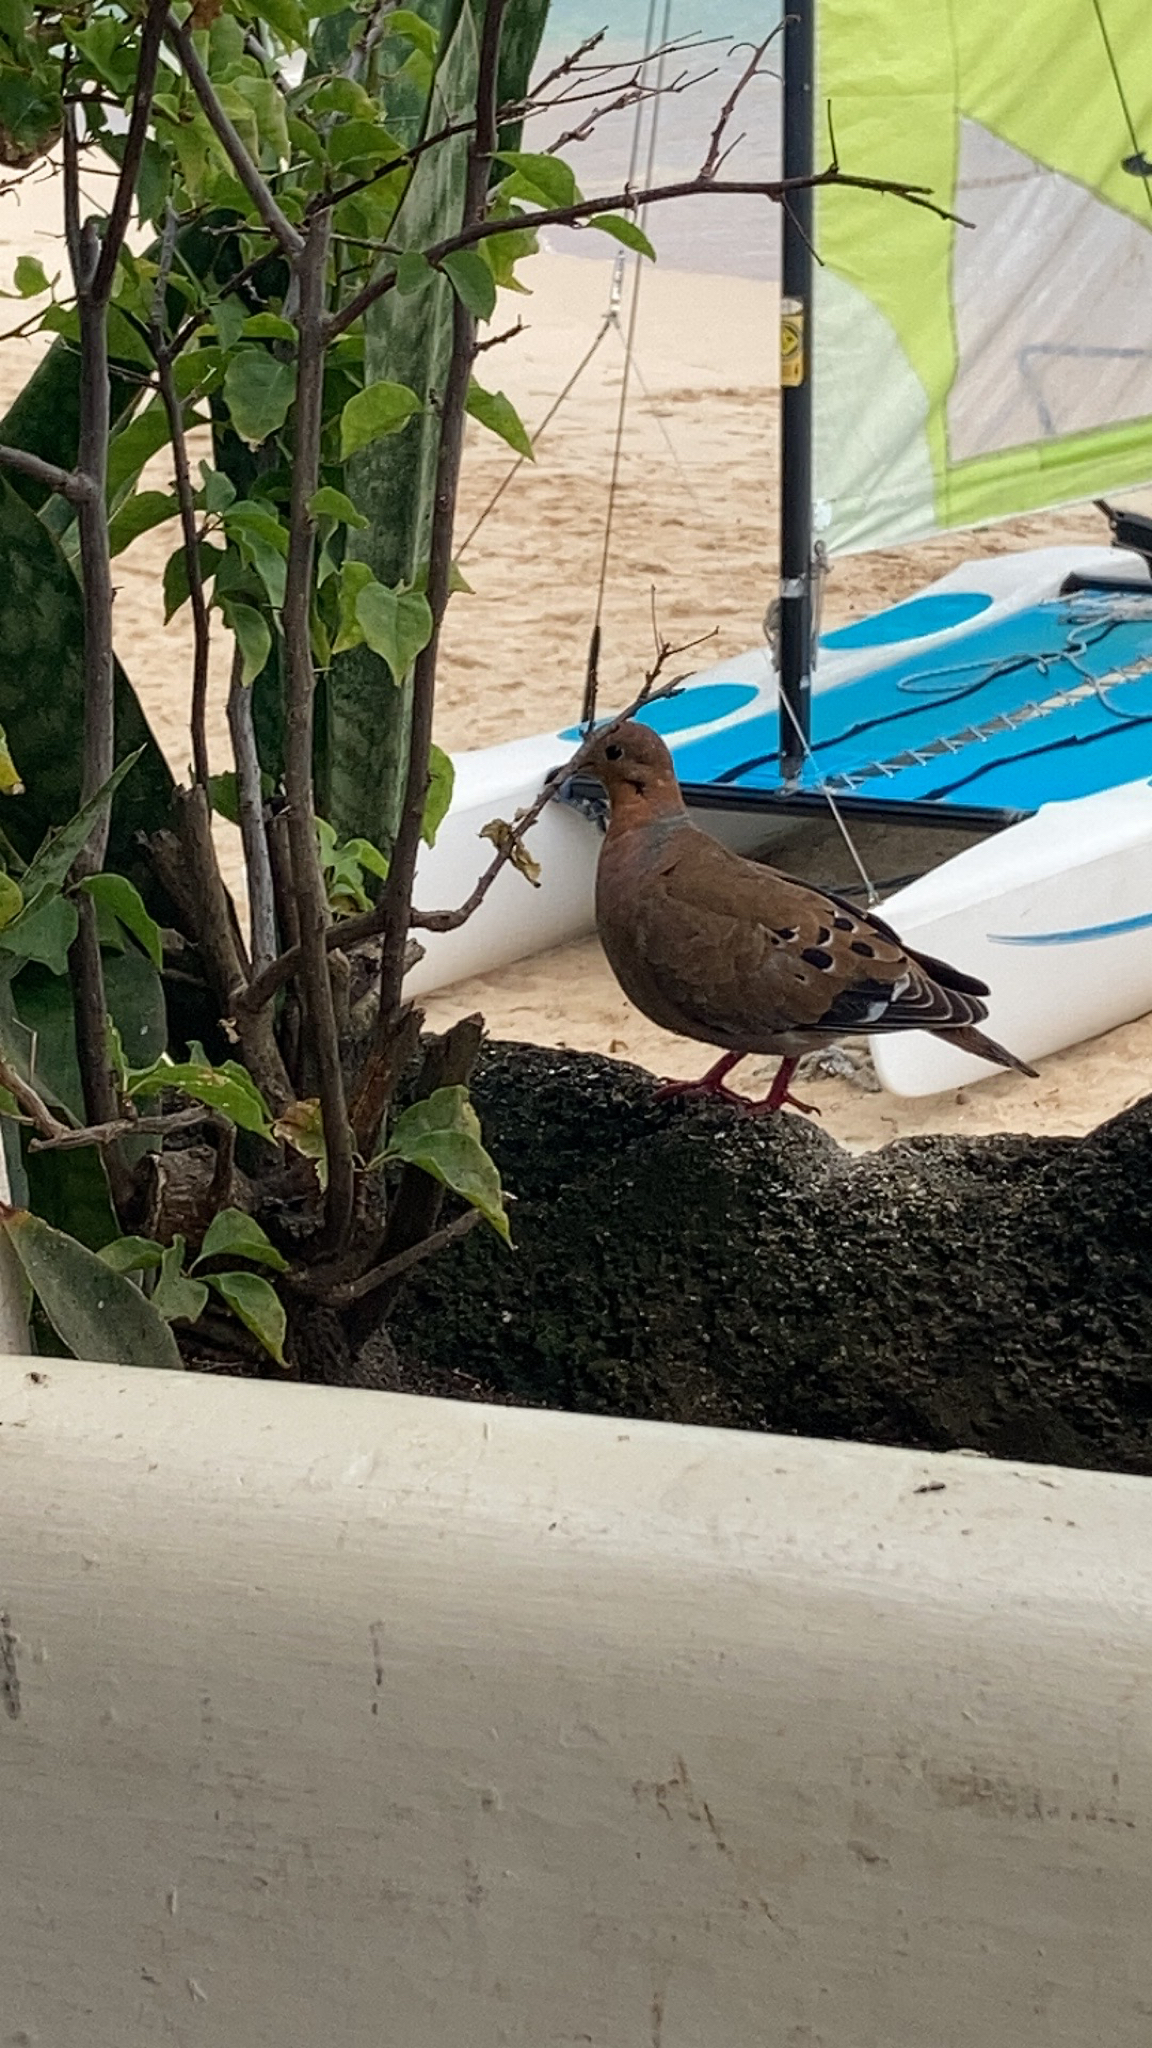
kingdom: Animalia
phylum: Chordata
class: Aves
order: Columbiformes
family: Columbidae
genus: Zenaida
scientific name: Zenaida aurita
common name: Zenaida dove
